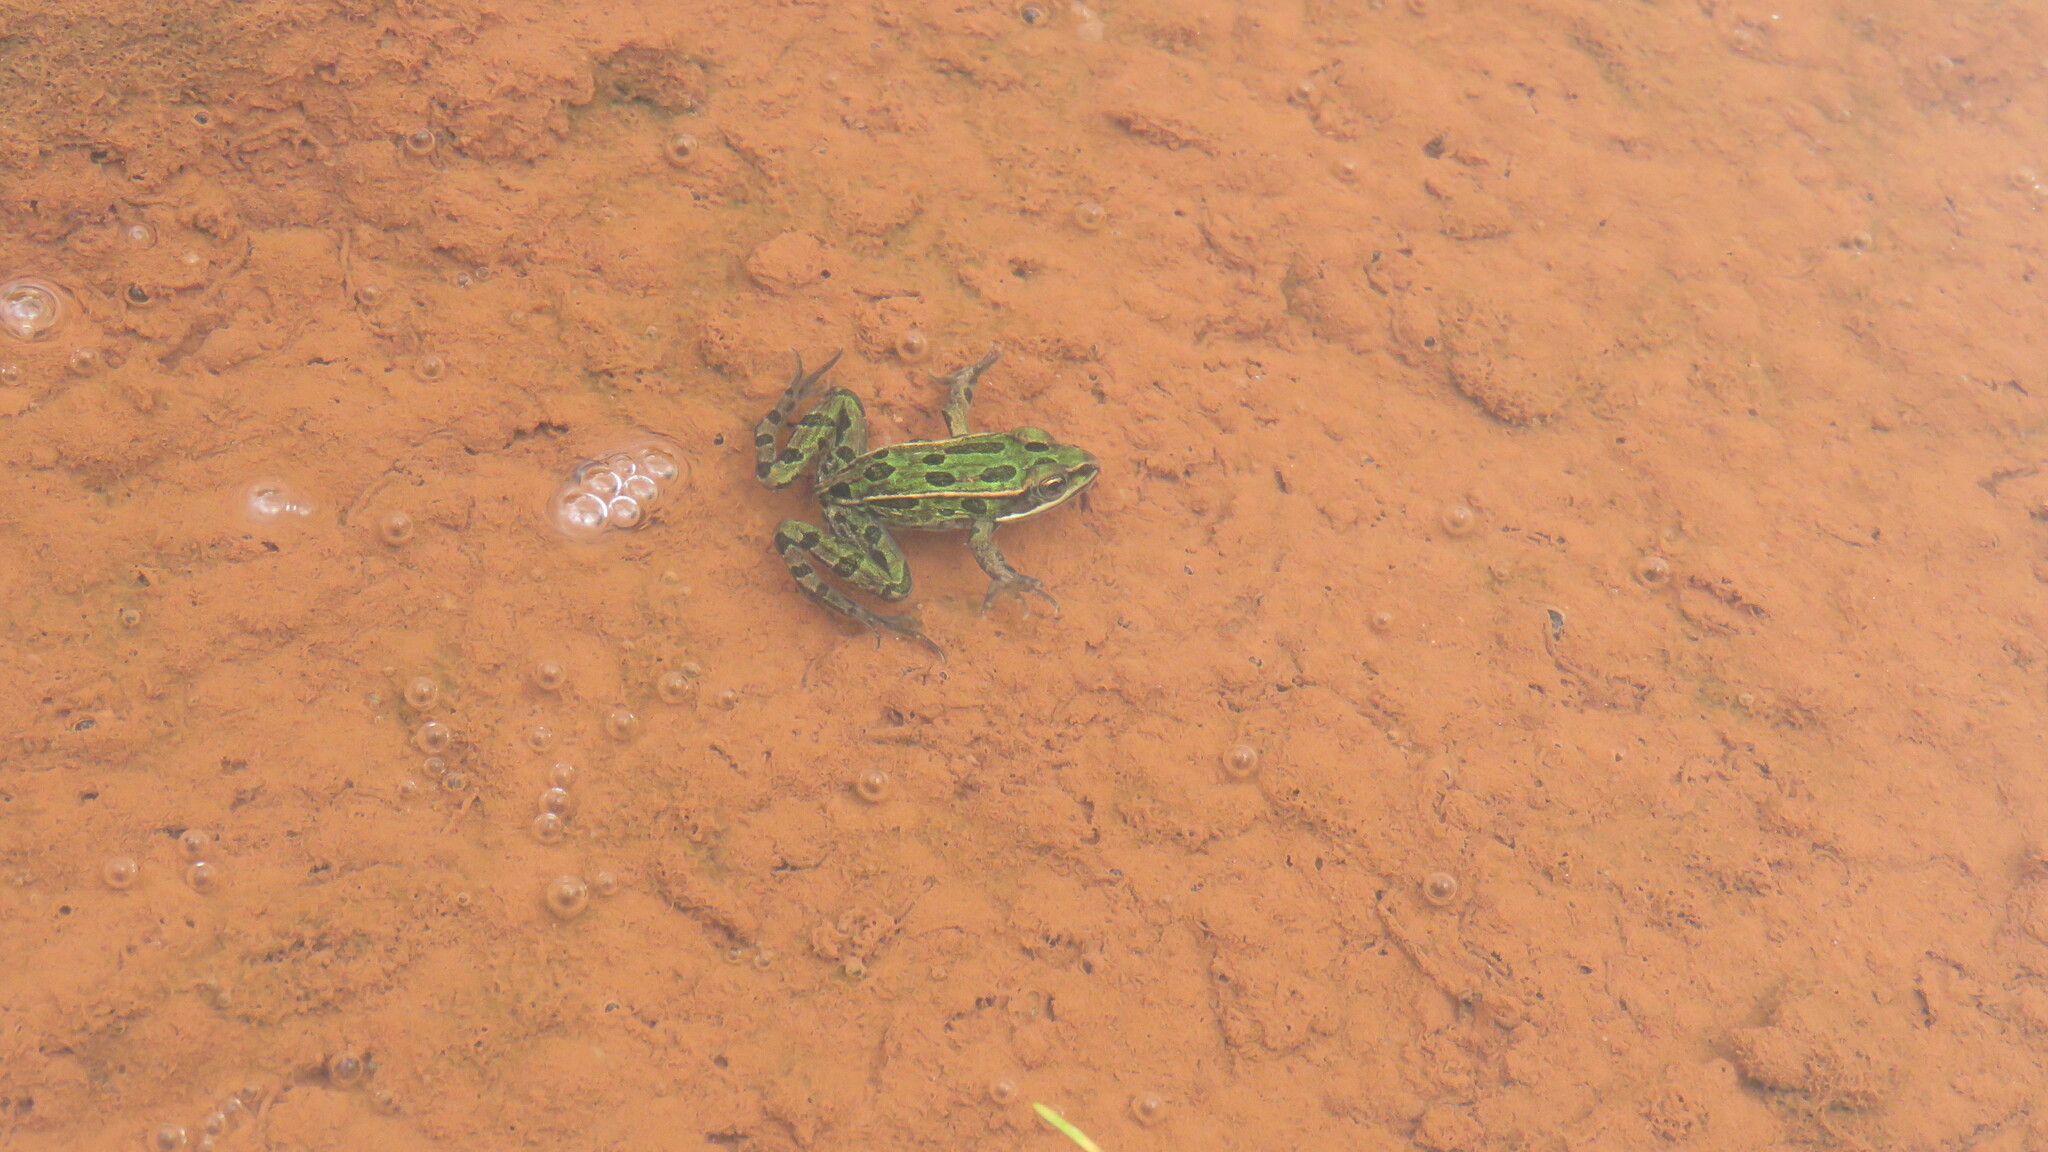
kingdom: Animalia
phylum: Chordata
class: Amphibia
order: Anura
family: Ranidae
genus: Lithobates
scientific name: Lithobates pipiens
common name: Northern leopard frog
